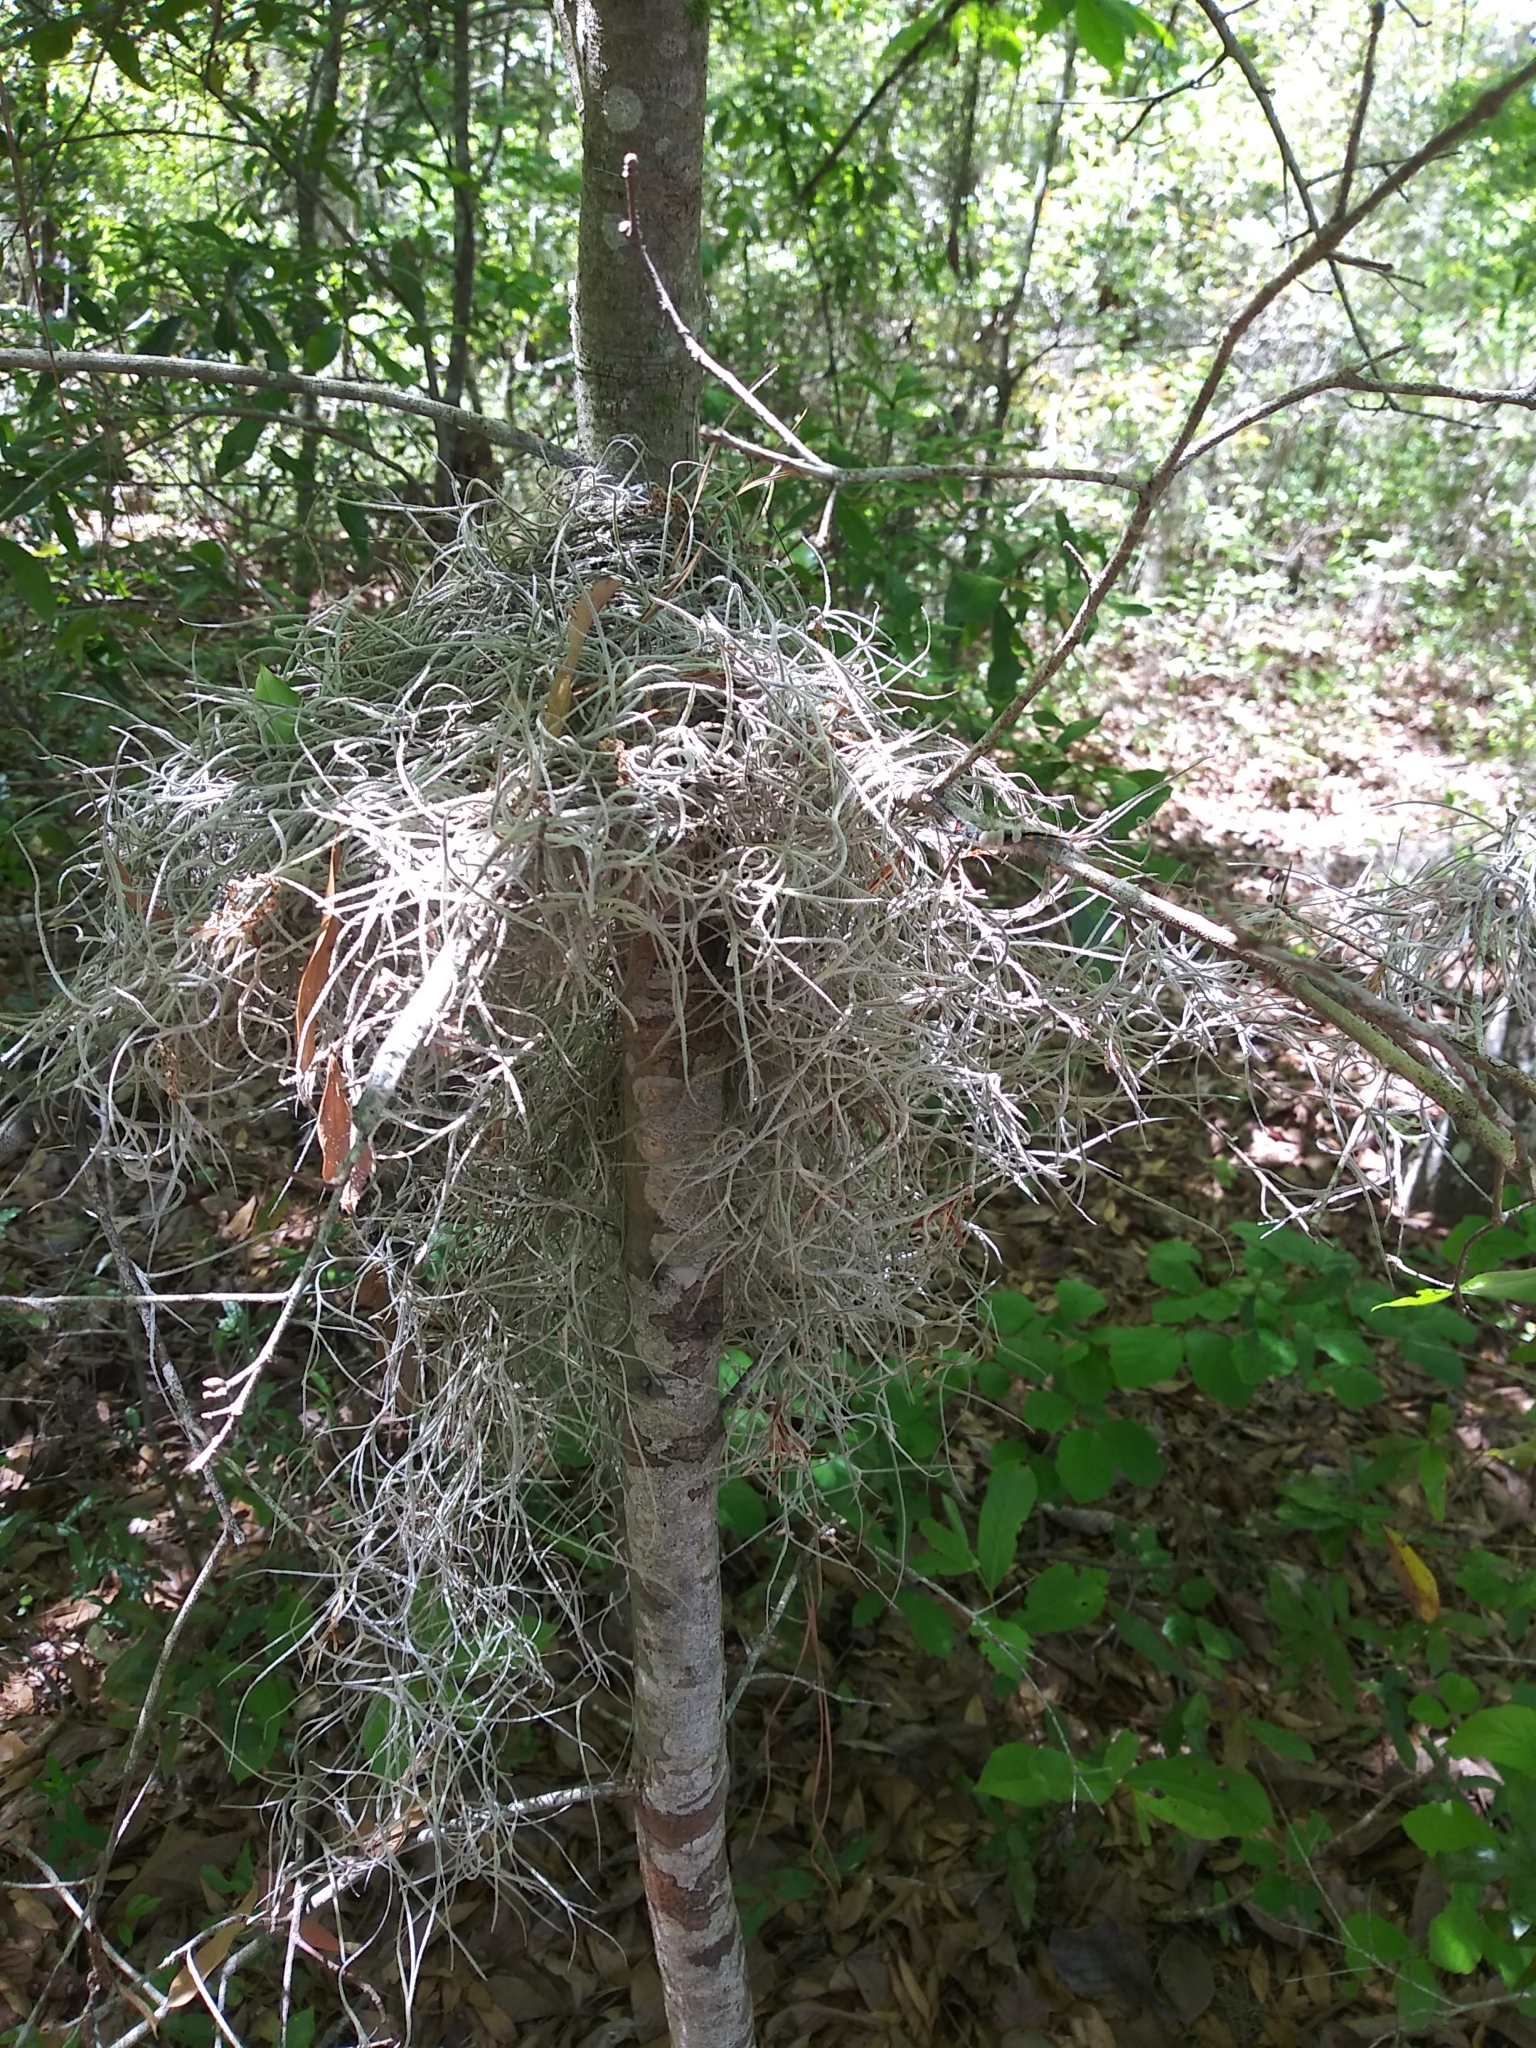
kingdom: Plantae
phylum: Tracheophyta
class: Liliopsida
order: Poales
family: Bromeliaceae
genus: Tillandsia
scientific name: Tillandsia usneoides
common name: Spanish moss
